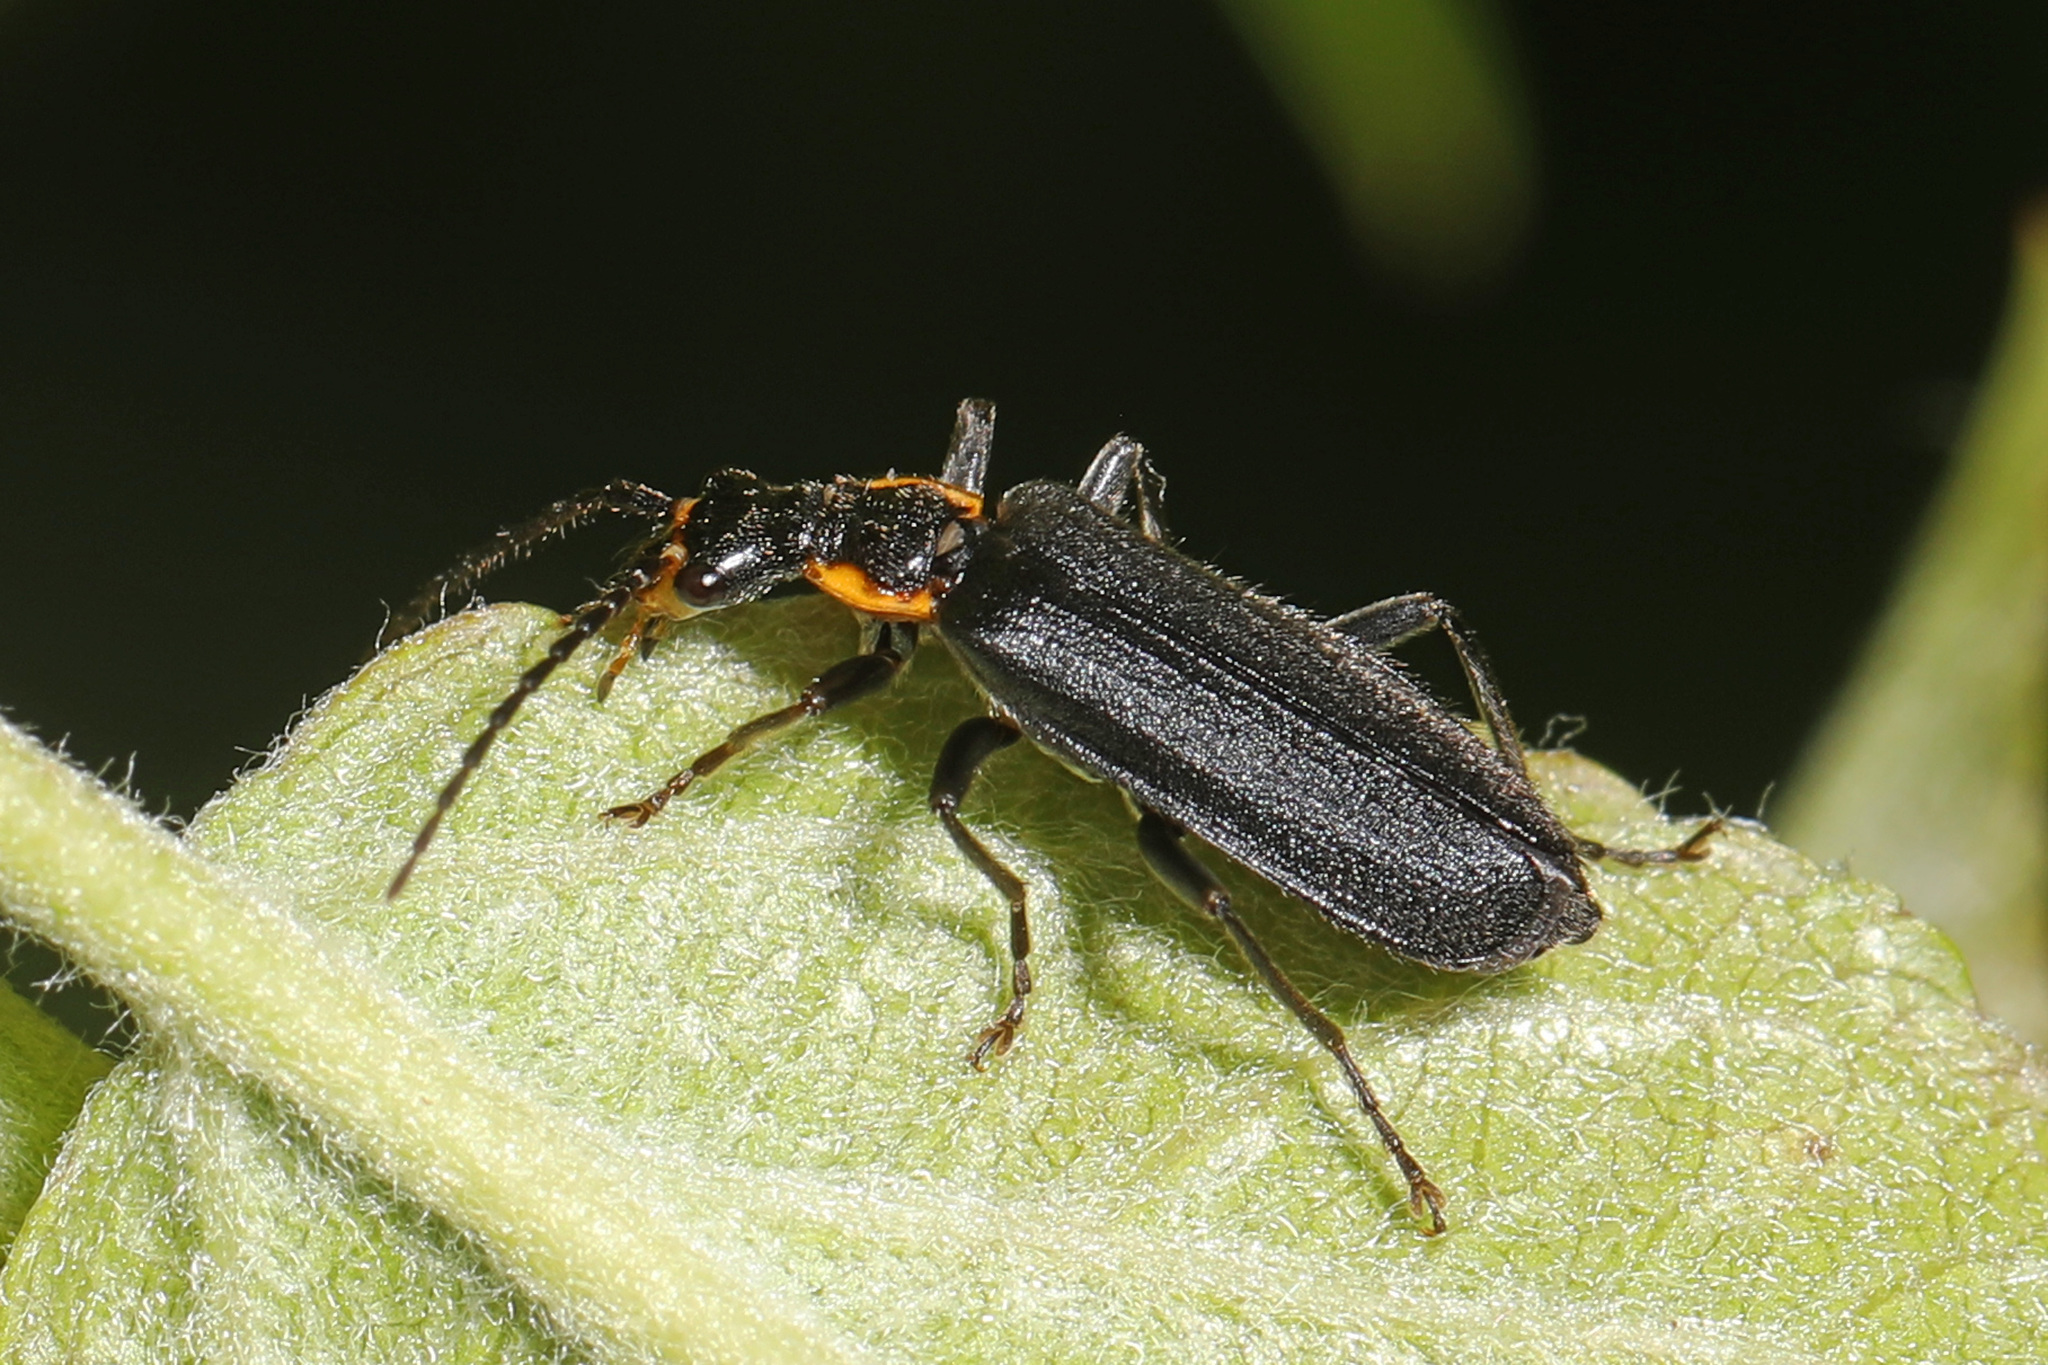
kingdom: Animalia
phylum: Arthropoda
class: Insecta
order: Coleoptera
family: Cantharidae
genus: Podabrus
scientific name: Podabrus rugosulus
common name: Wrinkled soldier beetle
